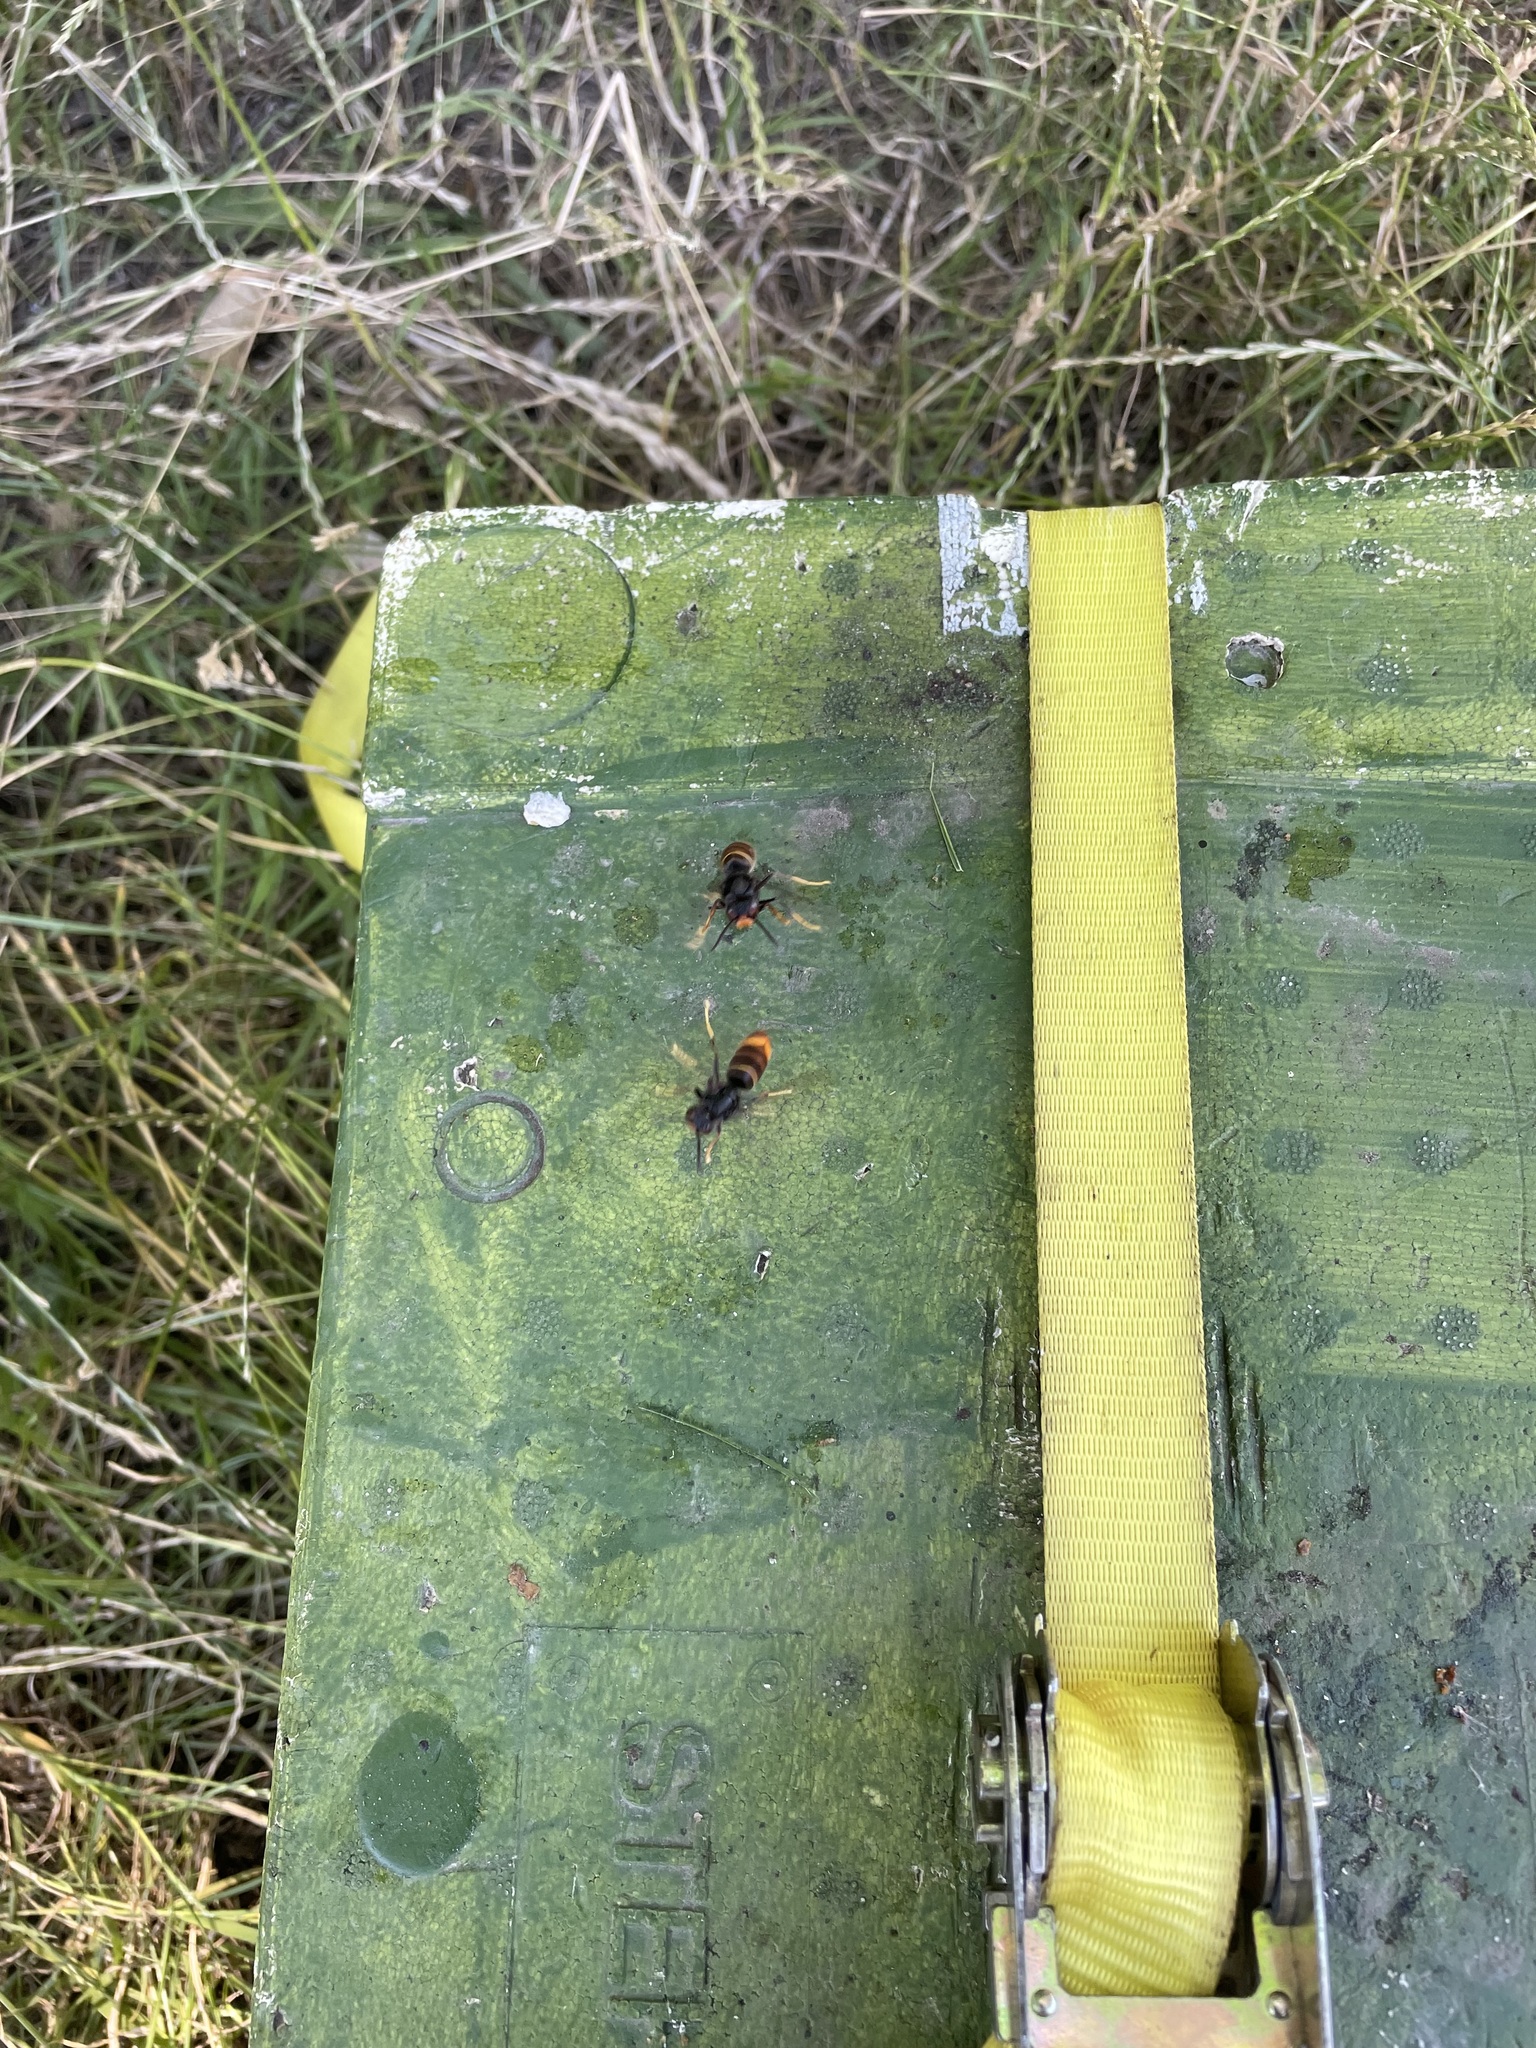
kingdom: Animalia
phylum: Arthropoda
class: Insecta
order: Hymenoptera
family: Vespidae
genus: Vespa
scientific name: Vespa velutina
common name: Asian hornet
